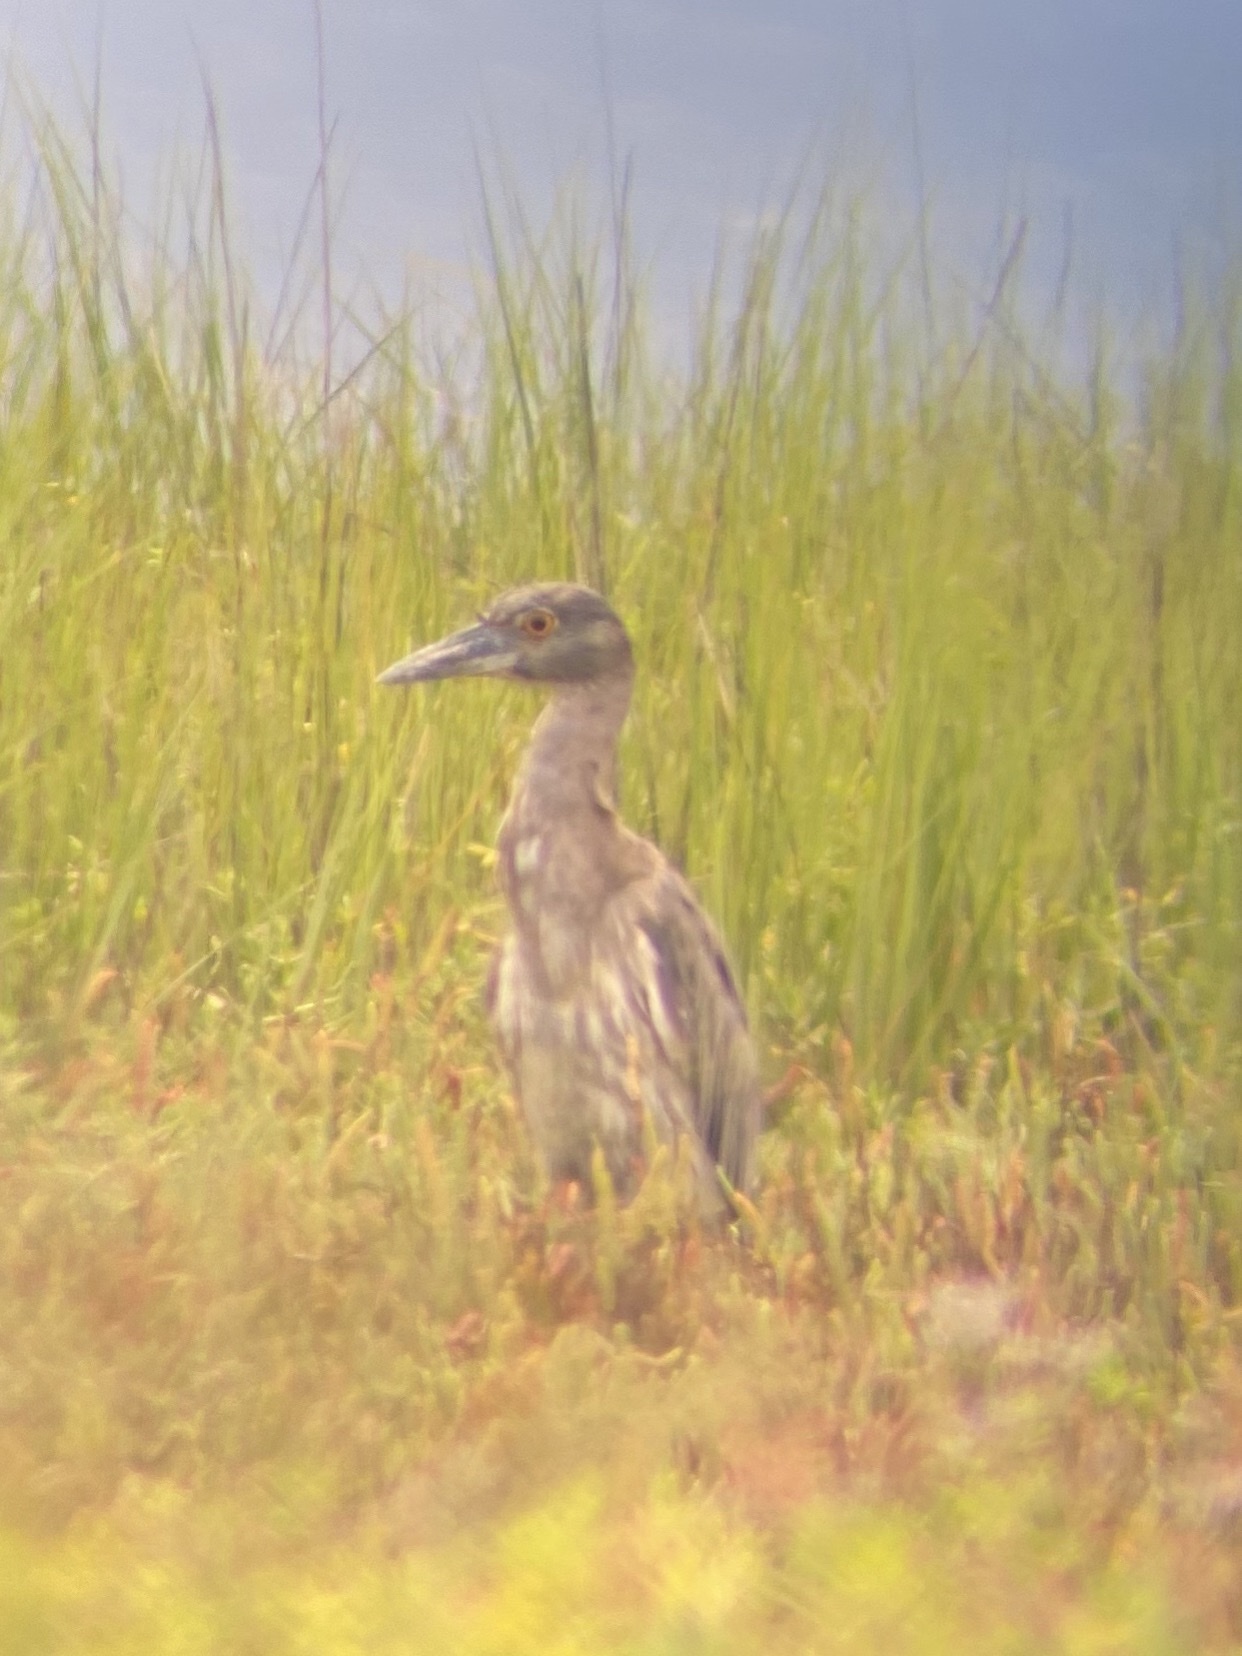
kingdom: Animalia
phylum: Chordata
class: Aves
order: Pelecaniformes
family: Ardeidae
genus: Nyctanassa
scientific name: Nyctanassa violacea
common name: Yellow-crowned night heron
